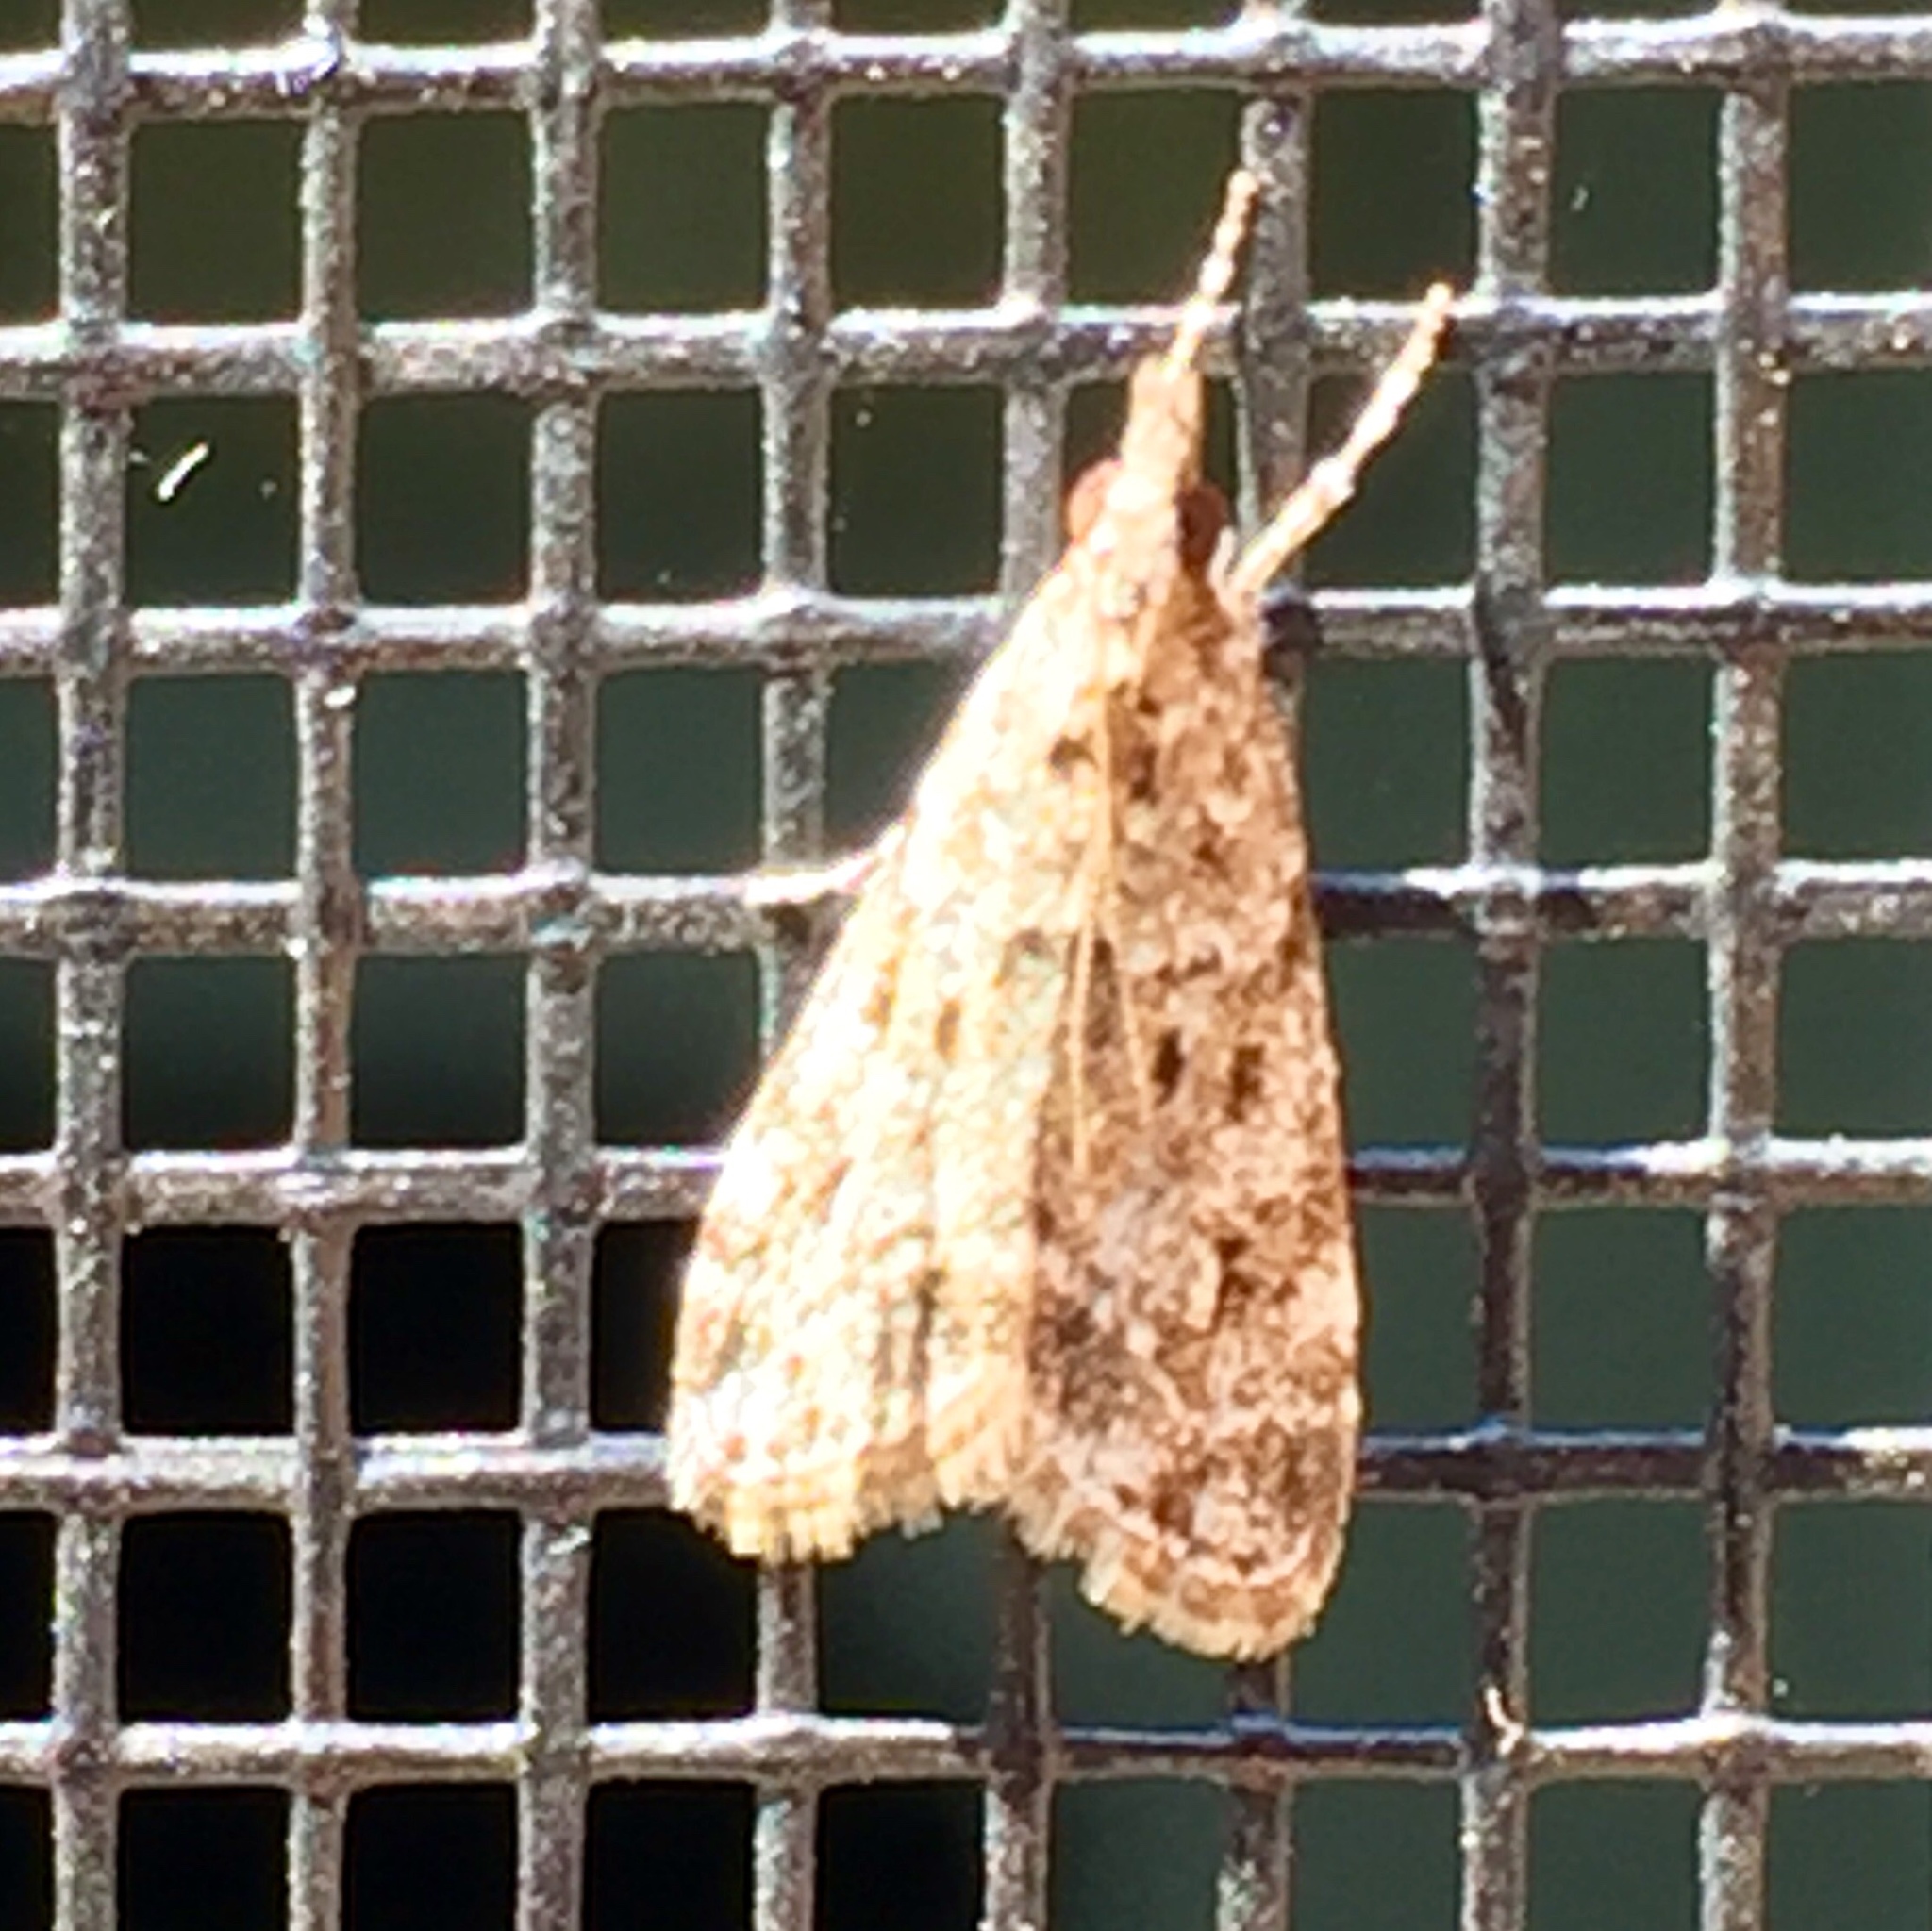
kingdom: Animalia
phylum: Arthropoda
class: Insecta
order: Lepidoptera
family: Crambidae
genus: Eudonia
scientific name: Eudonia heterosalis
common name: Mcdunnough's eudonia
